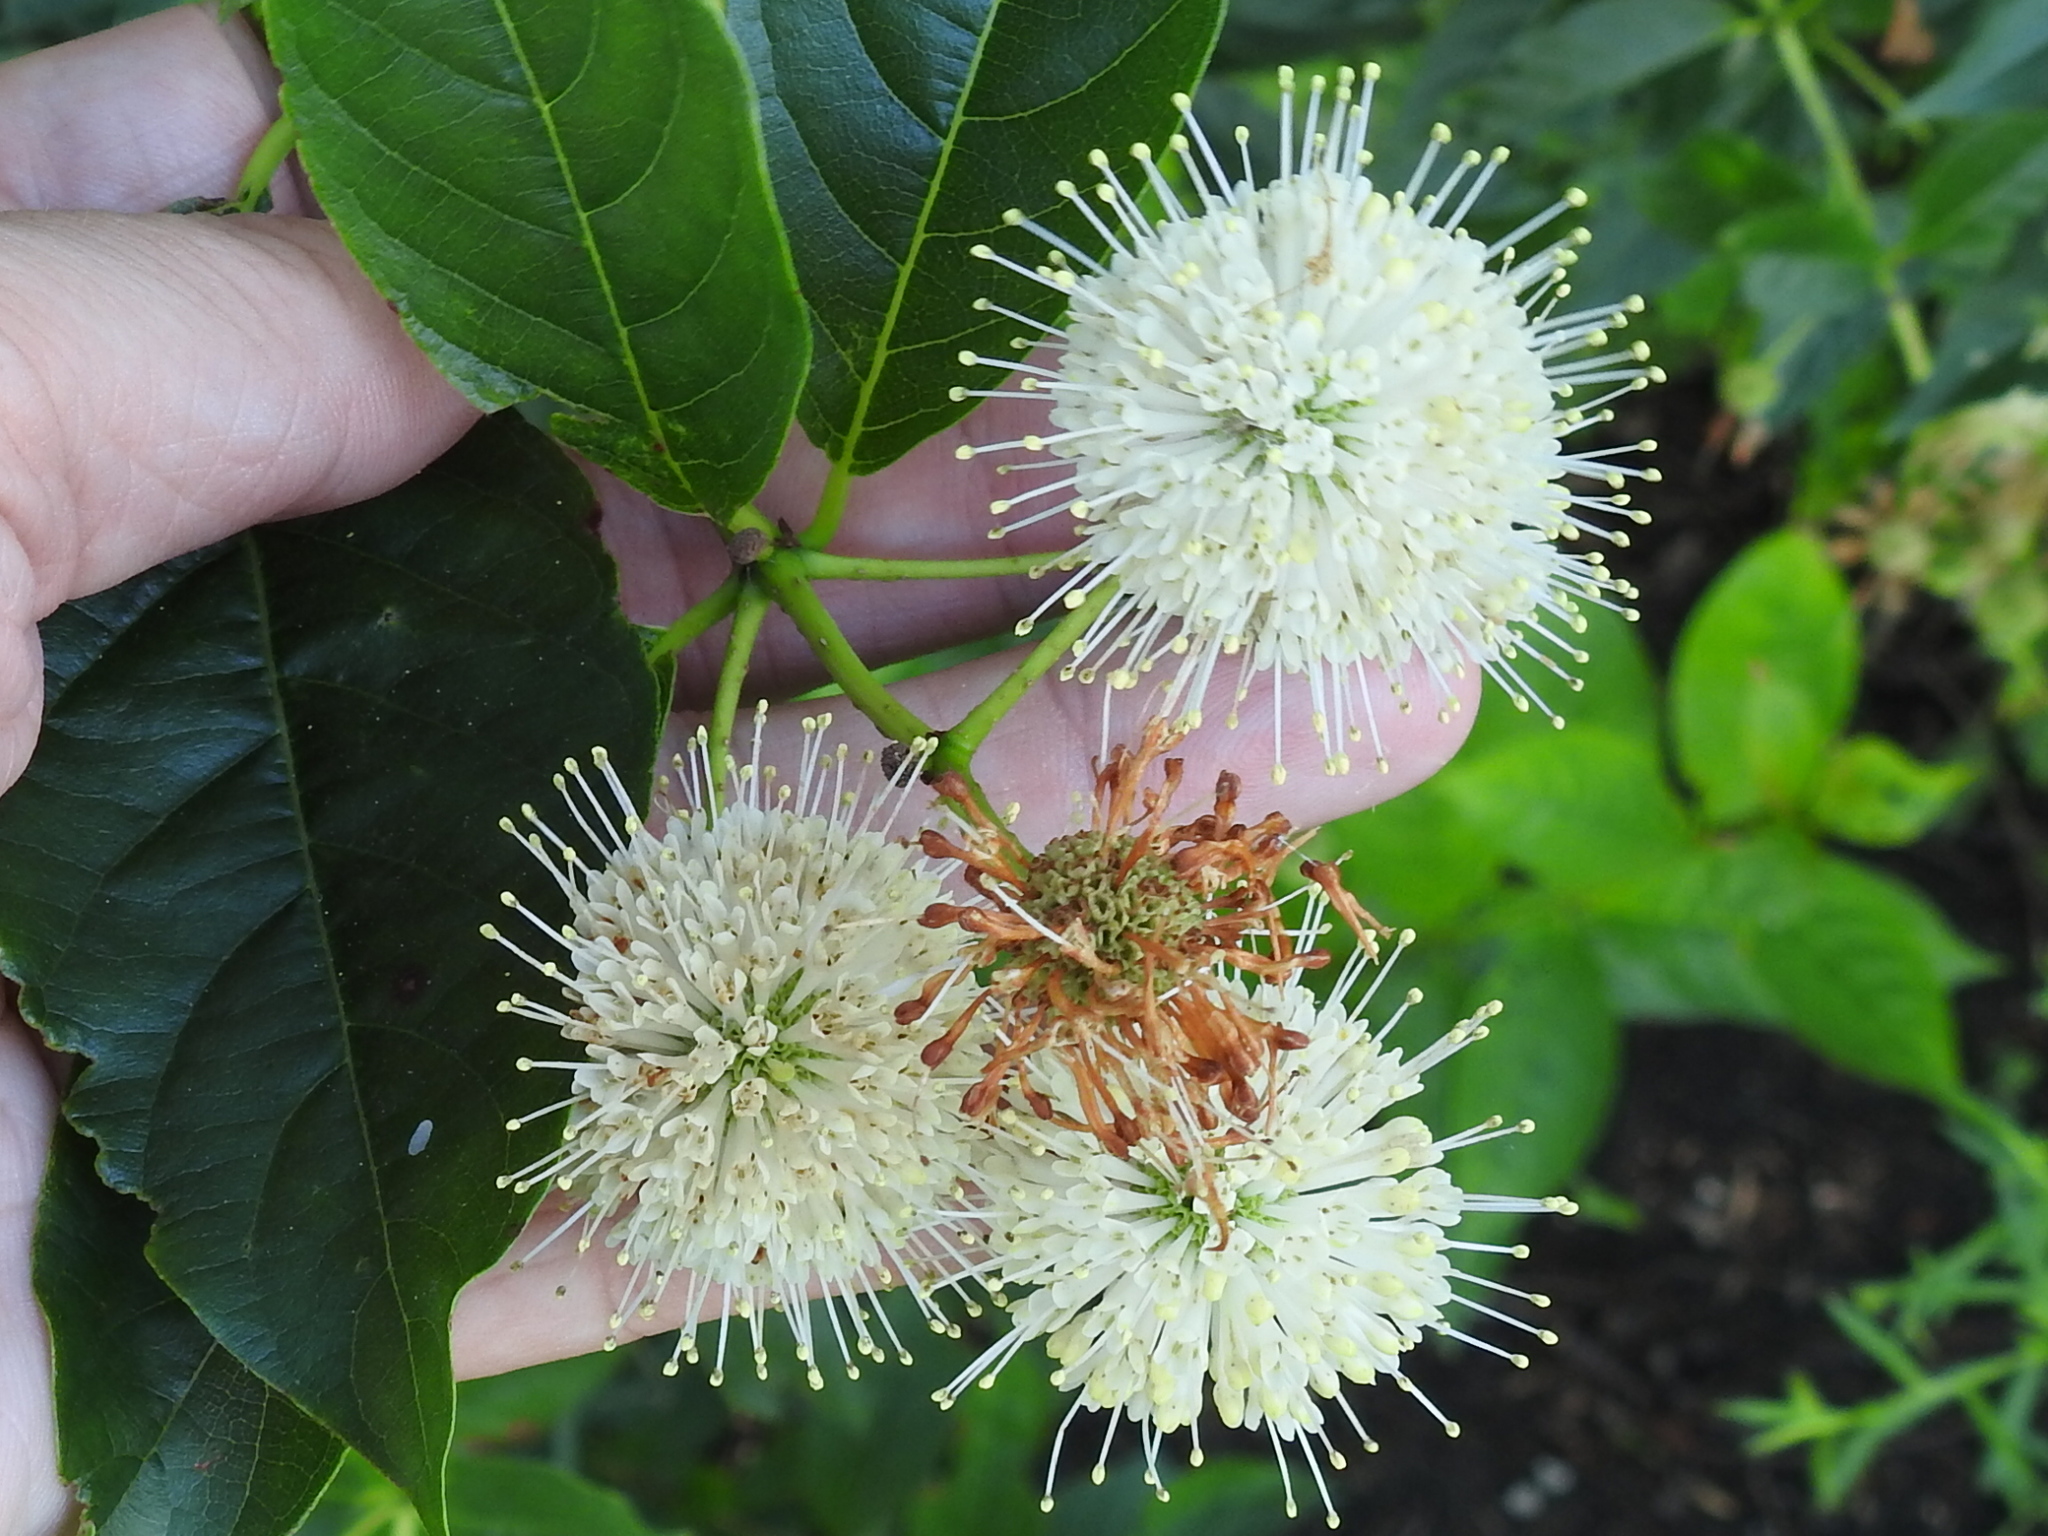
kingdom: Plantae
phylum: Tracheophyta
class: Magnoliopsida
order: Gentianales
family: Rubiaceae
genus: Cephalanthus
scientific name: Cephalanthus occidentalis
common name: Button-willow
